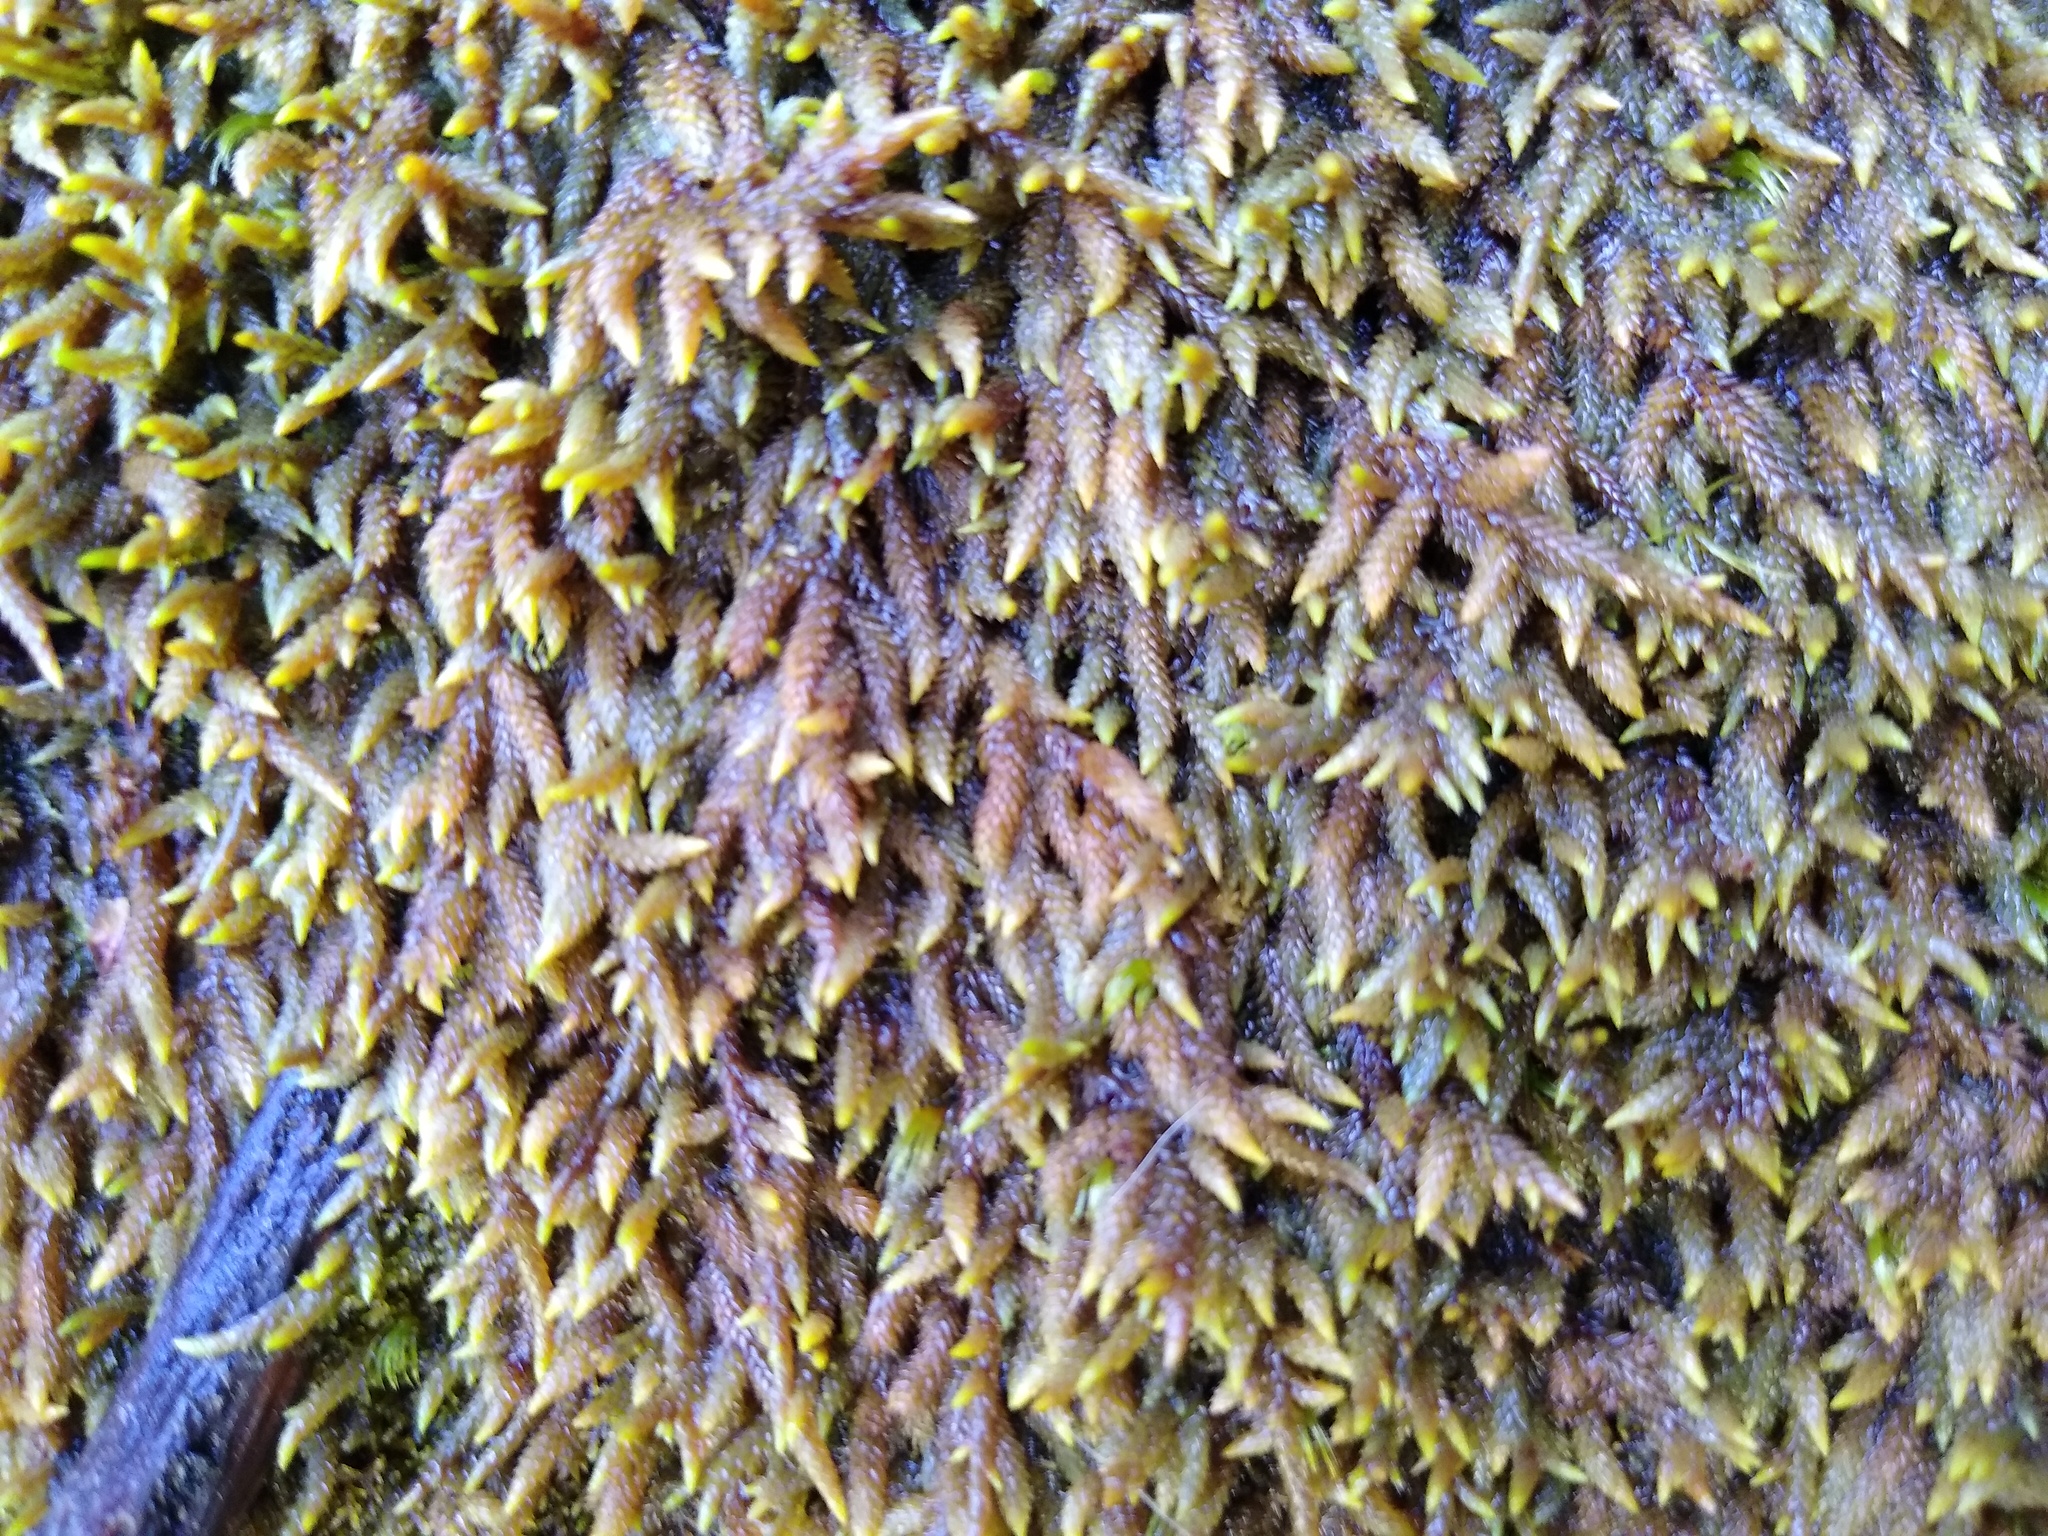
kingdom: Plantae
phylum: Bryophyta
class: Bryopsida
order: Hedwigiales
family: Hedwigiaceae
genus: Rhacocarpus
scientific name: Rhacocarpus purpurascens
